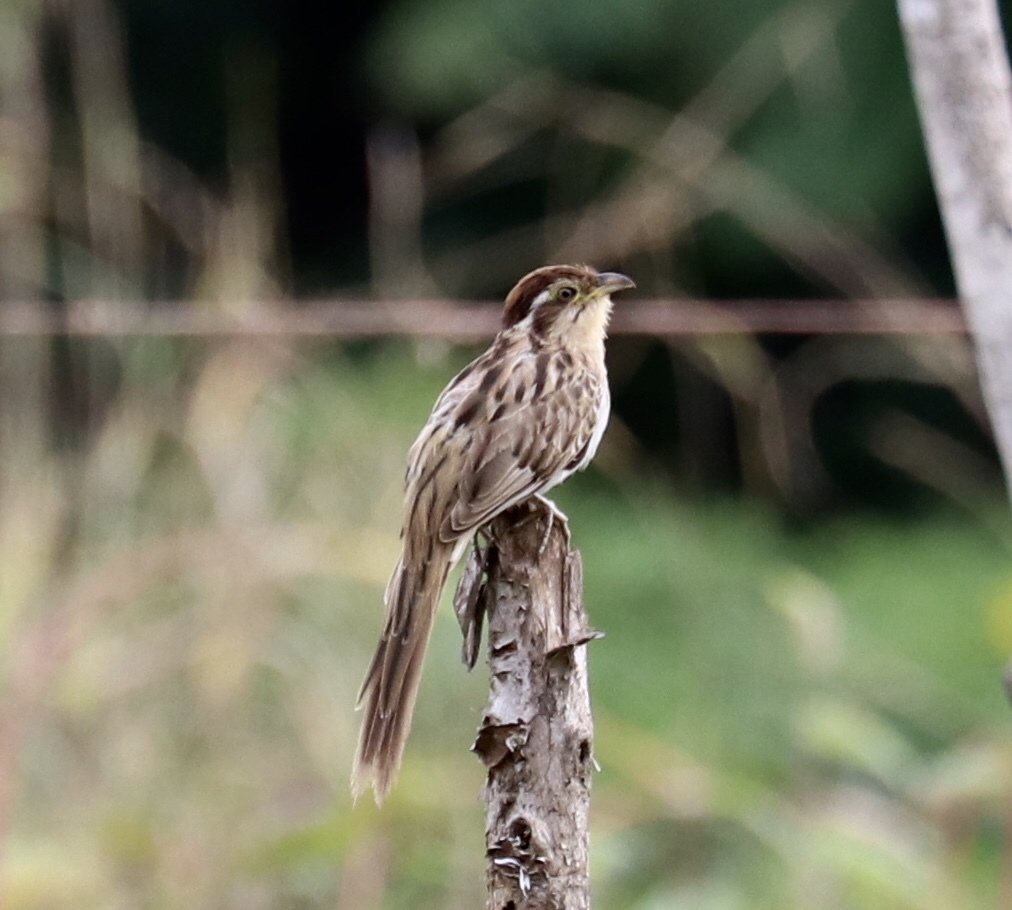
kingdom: Animalia
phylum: Chordata
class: Aves
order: Cuculiformes
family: Cuculidae
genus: Tapera
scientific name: Tapera naevia
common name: Striped cuckoo
